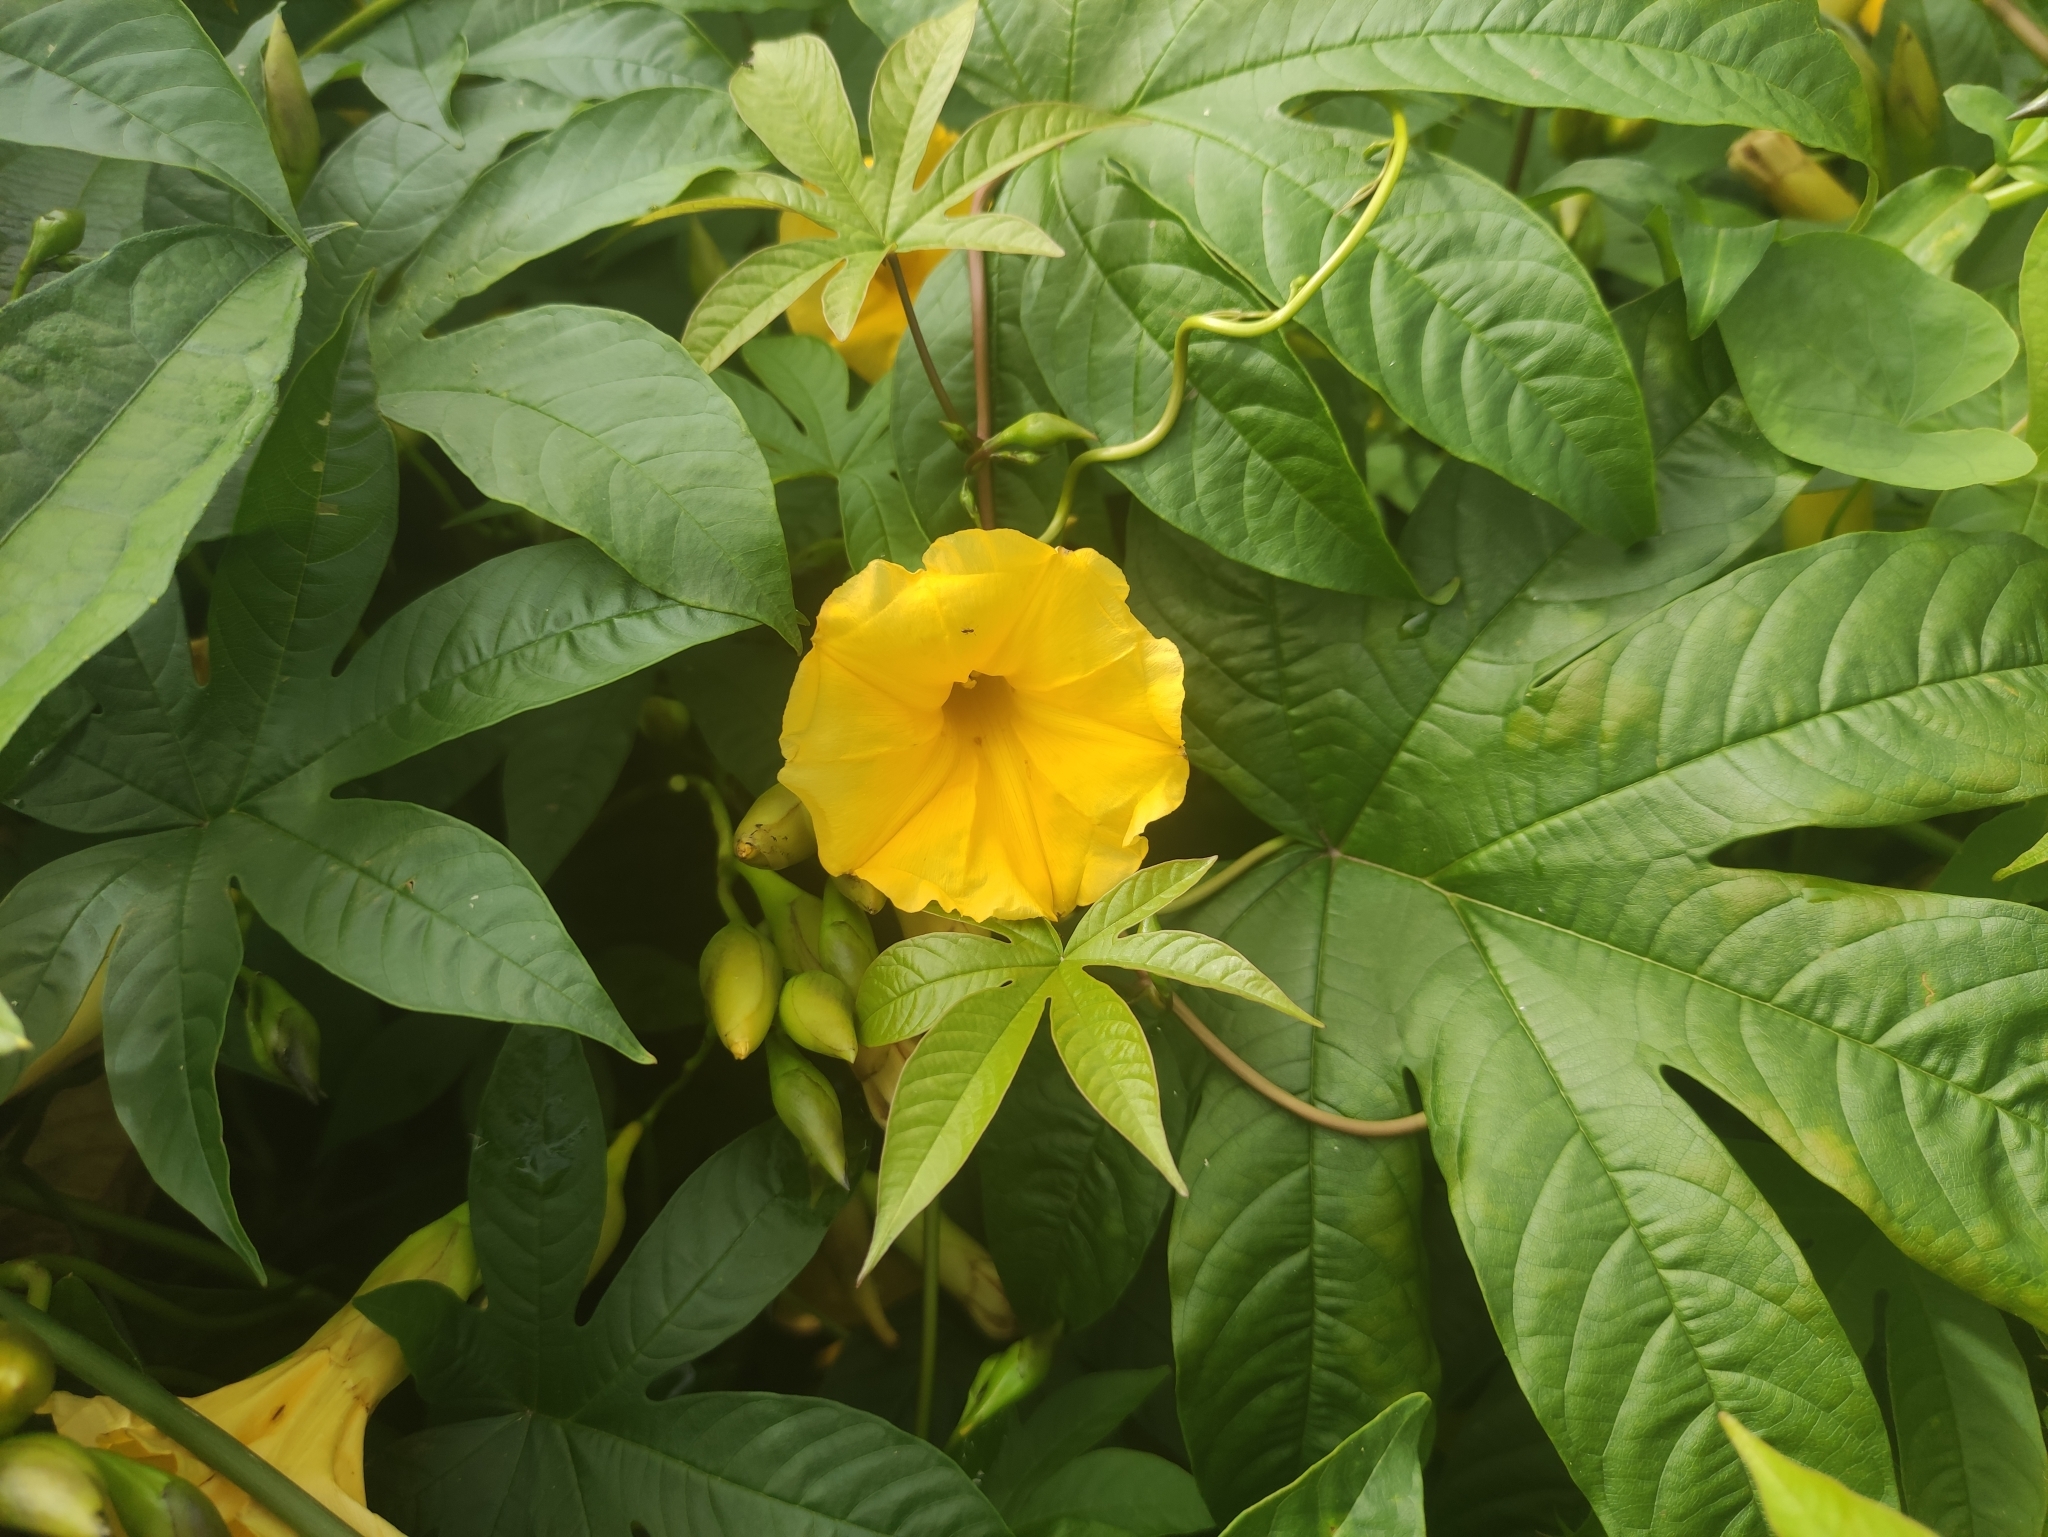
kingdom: Plantae
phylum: Tracheophyta
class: Magnoliopsida
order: Solanales
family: Convolvulaceae
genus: Distimake
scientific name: Distimake tuberosus
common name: Spanish arborvine
